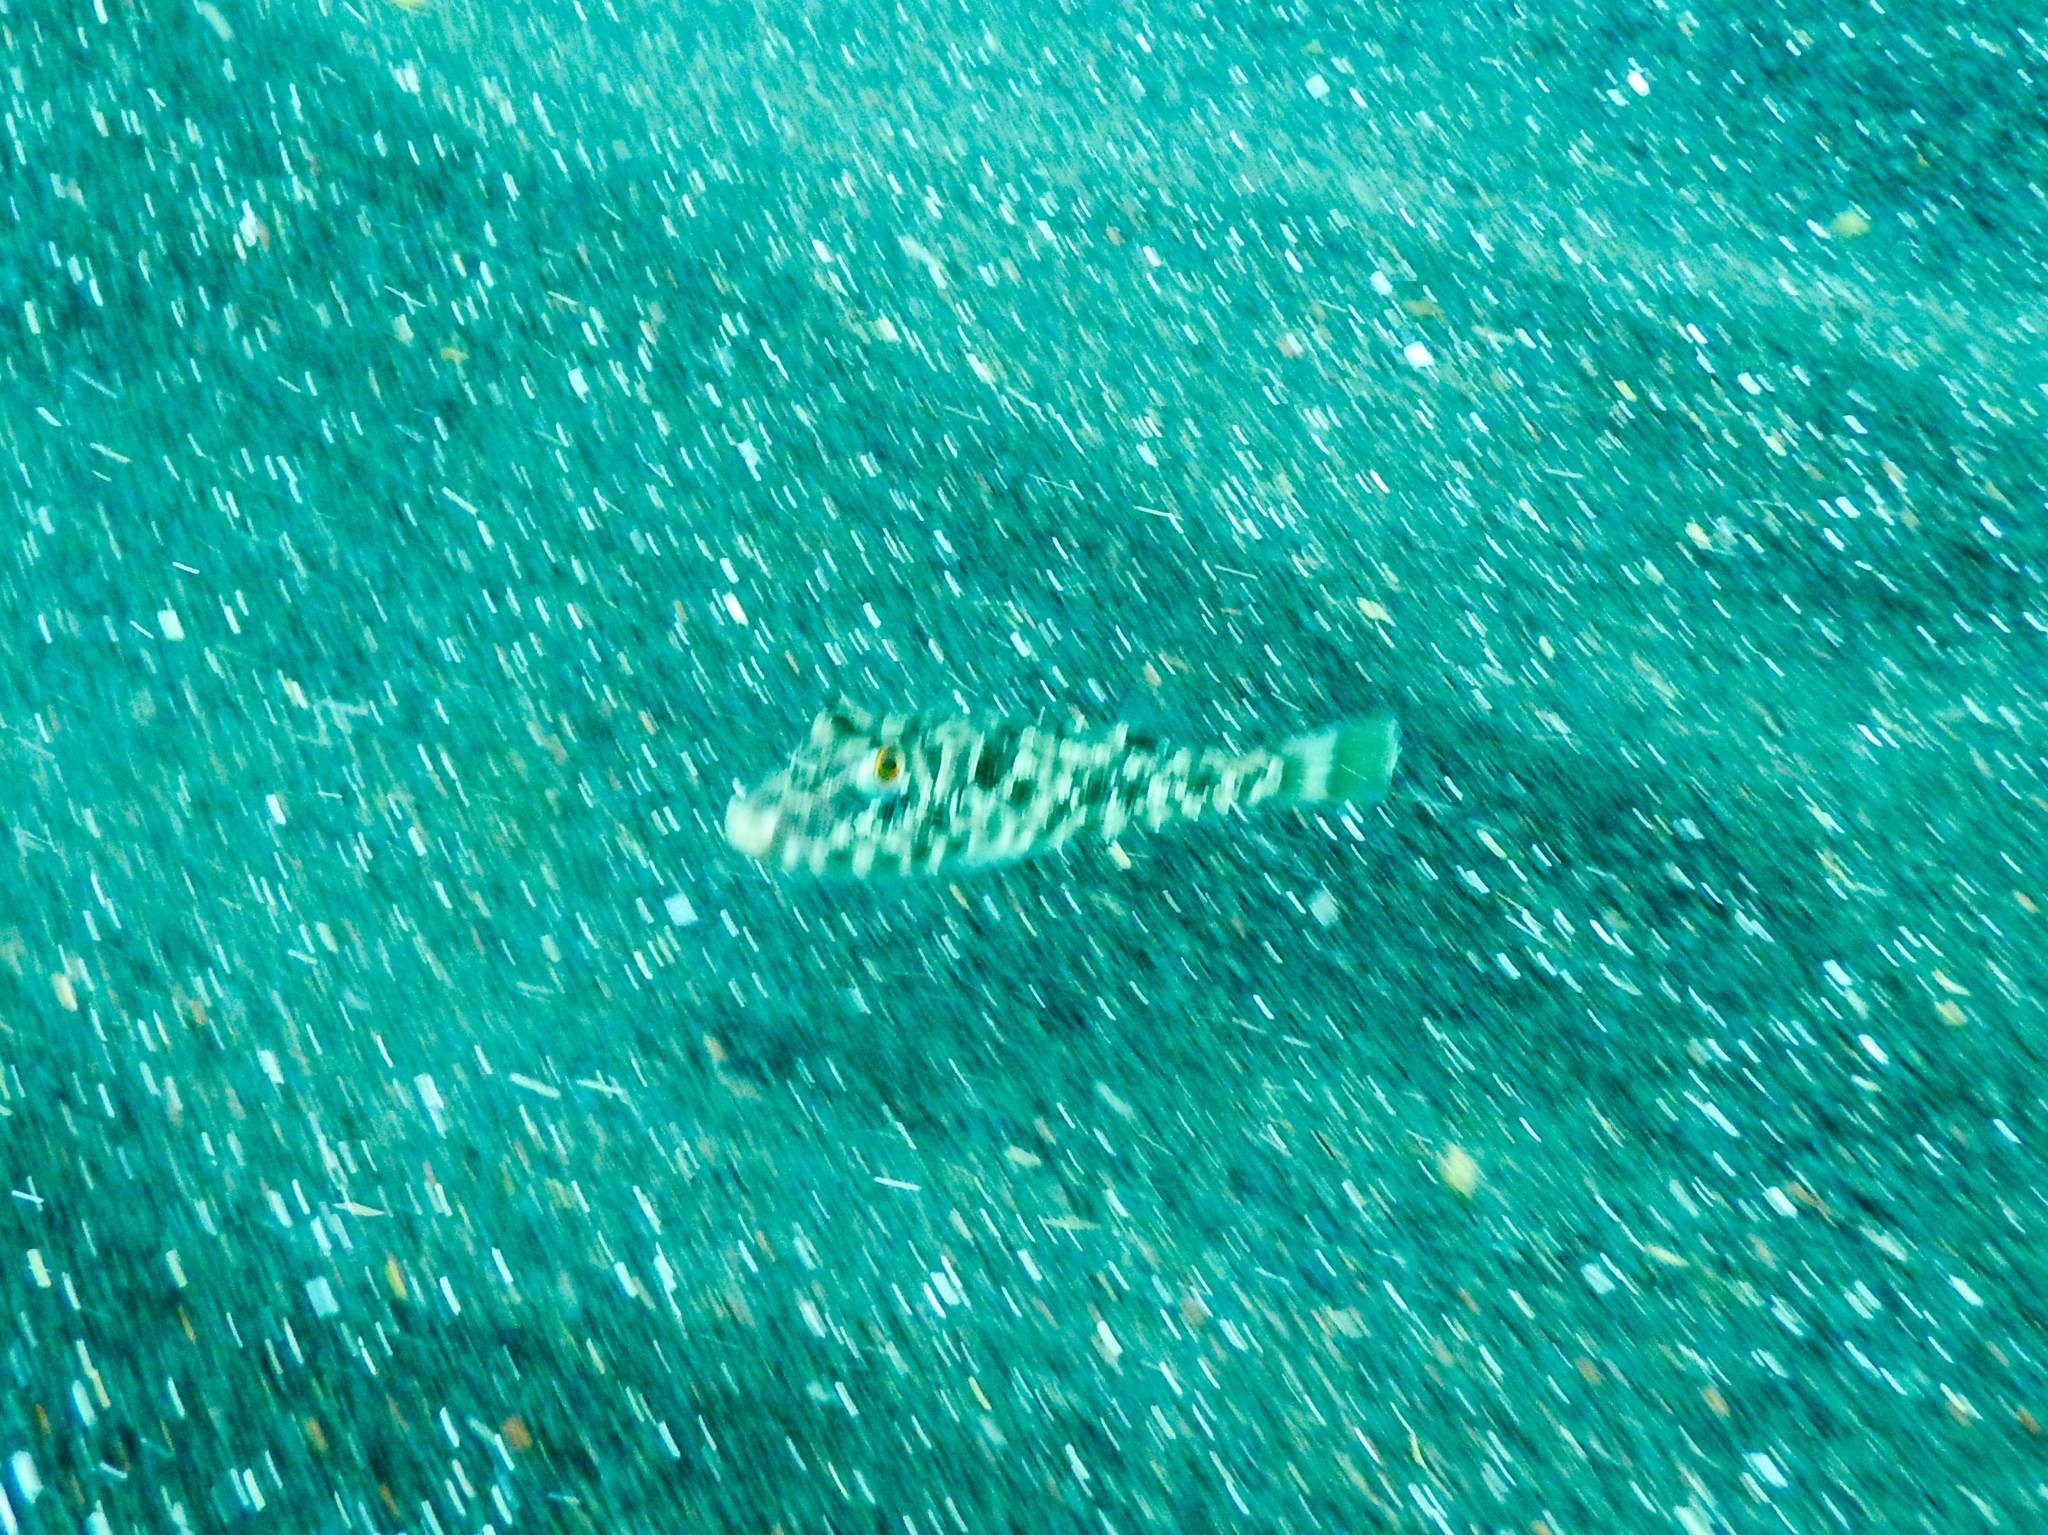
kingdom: Animalia
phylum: Chordata
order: Tetraodontiformes
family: Tetraodontidae
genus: Sphoeroides
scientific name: Sphoeroides marmoratus
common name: Guinean puffer
